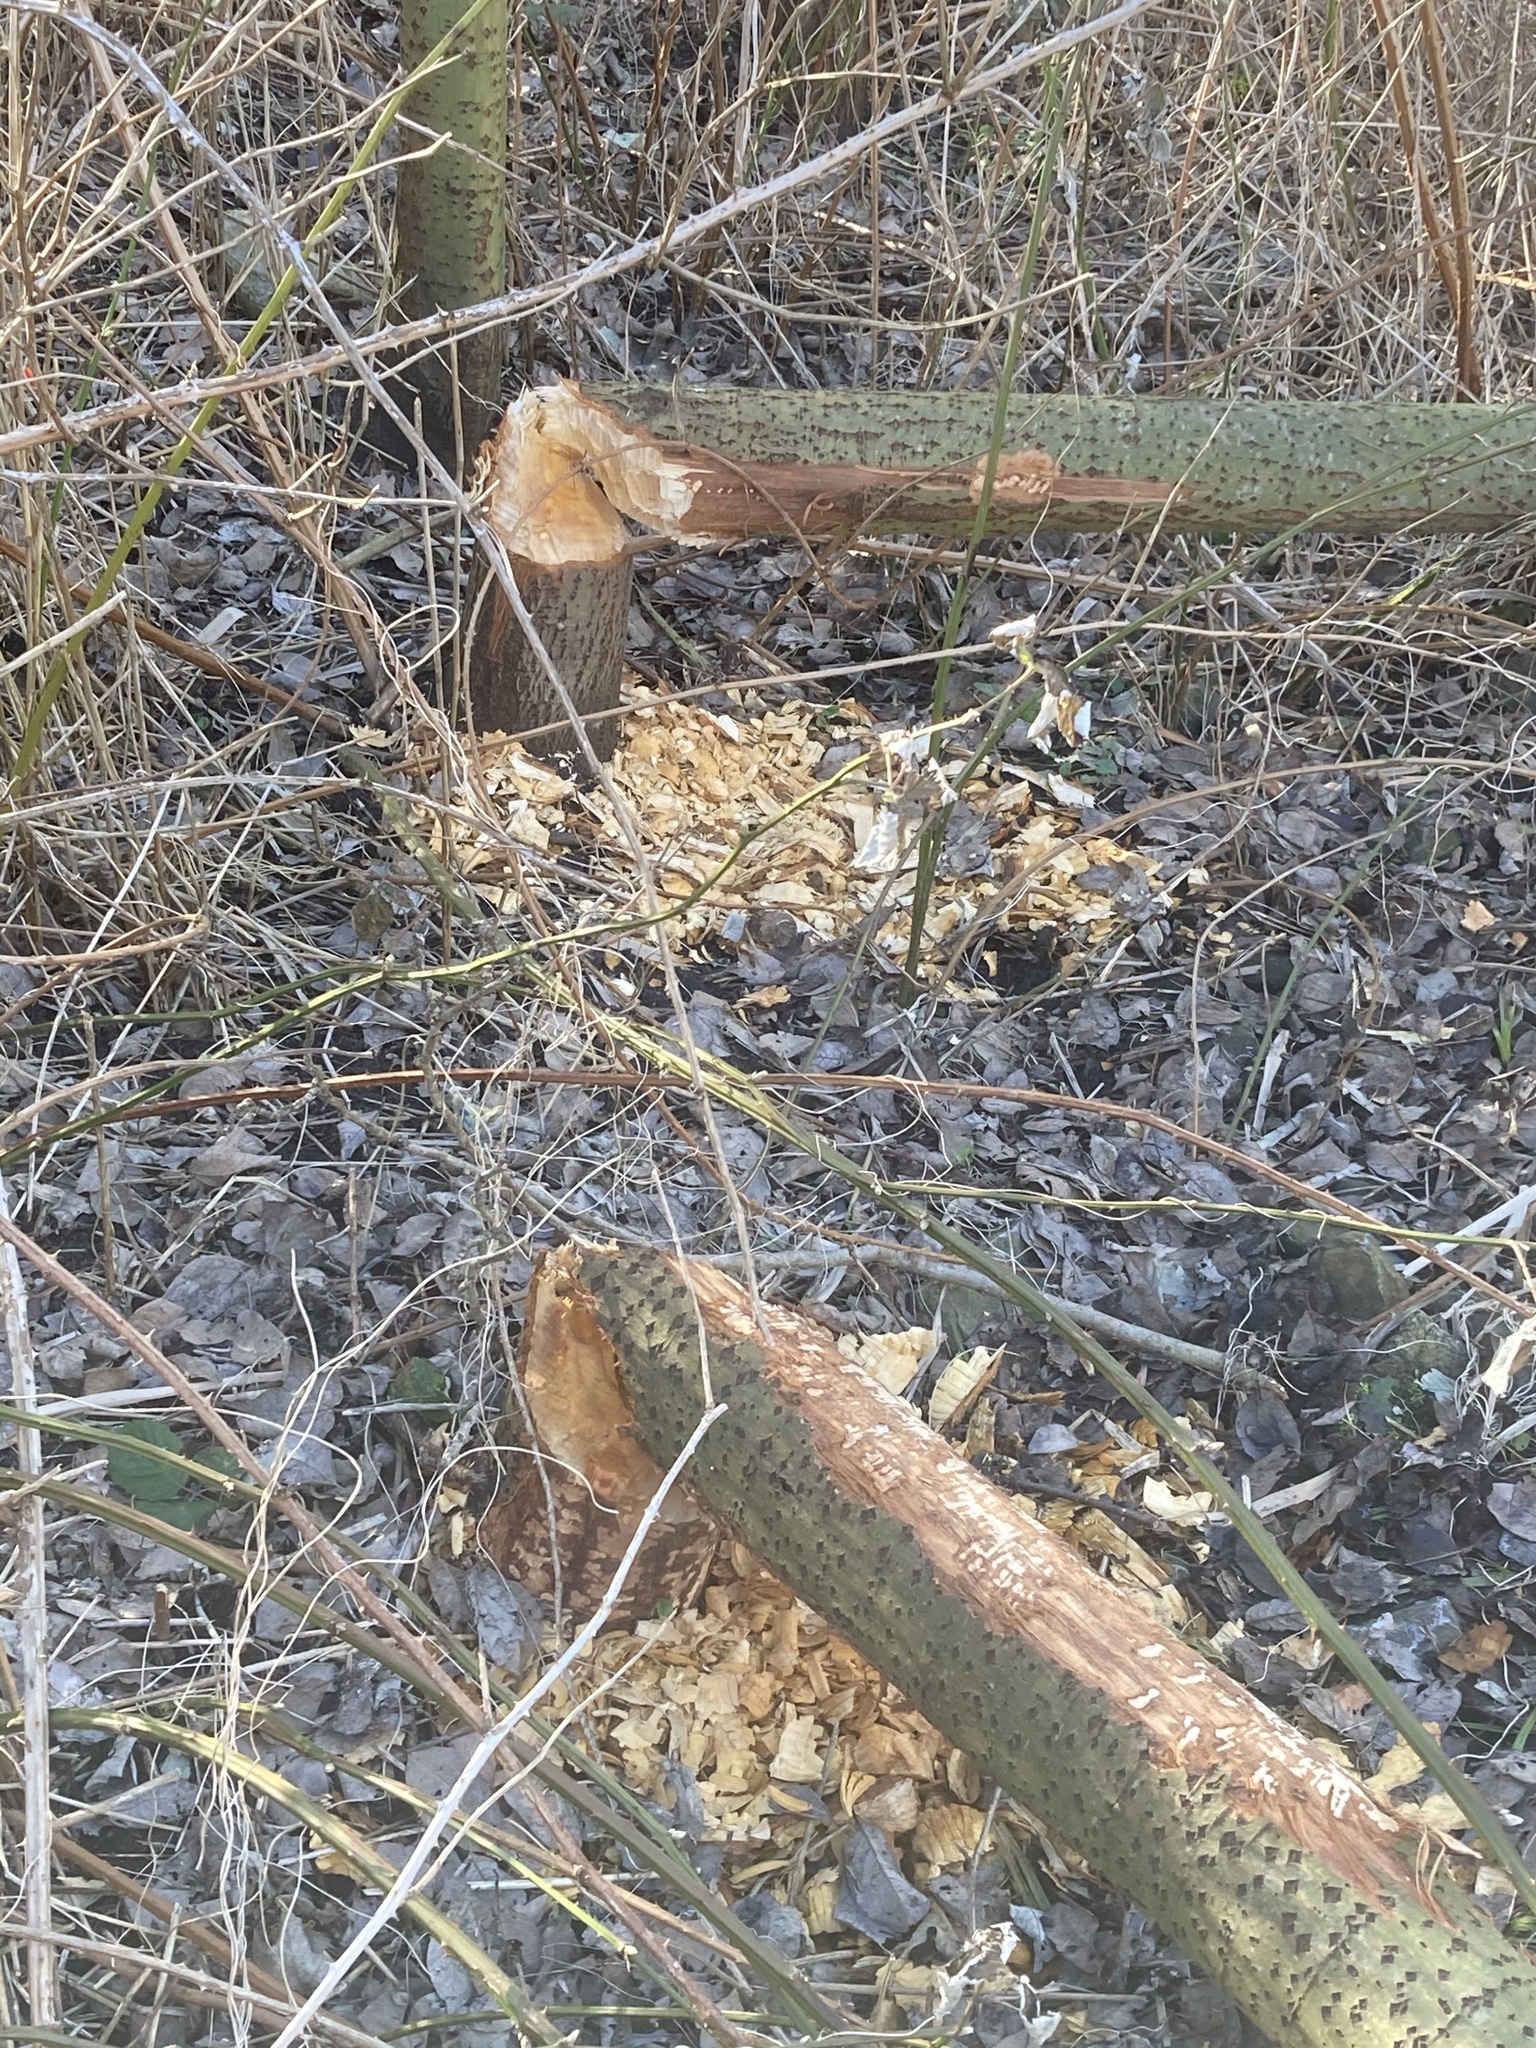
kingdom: Animalia
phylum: Chordata
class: Mammalia
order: Rodentia
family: Castoridae
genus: Castor
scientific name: Castor fiber
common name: Eurasian beaver
